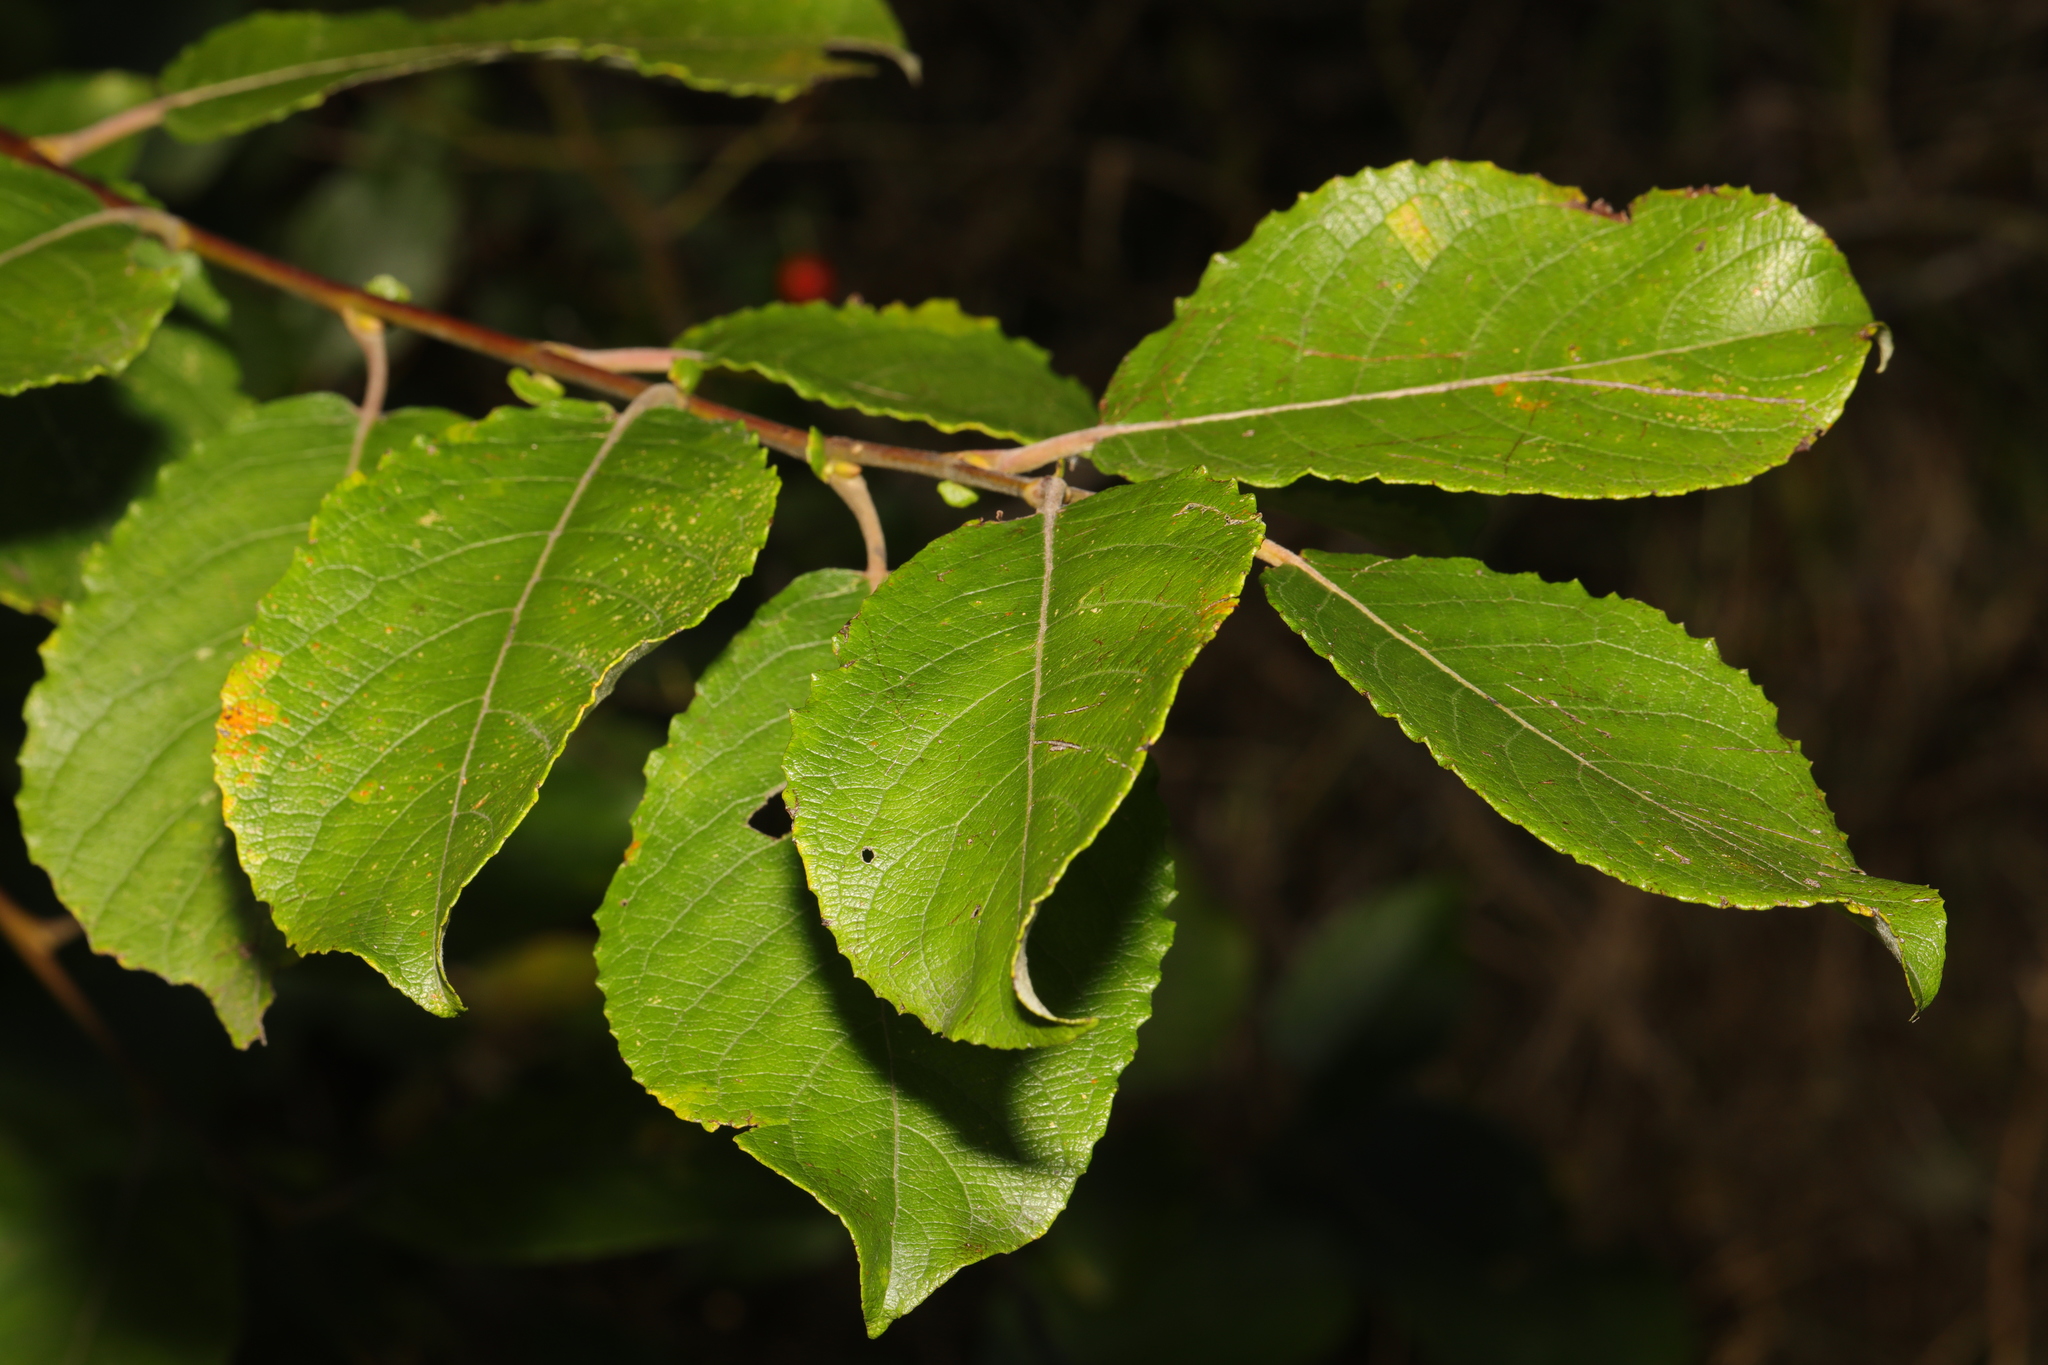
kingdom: Plantae
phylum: Tracheophyta
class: Magnoliopsida
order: Malpighiales
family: Salicaceae
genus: Salix
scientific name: Salix caprea
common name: Goat willow
